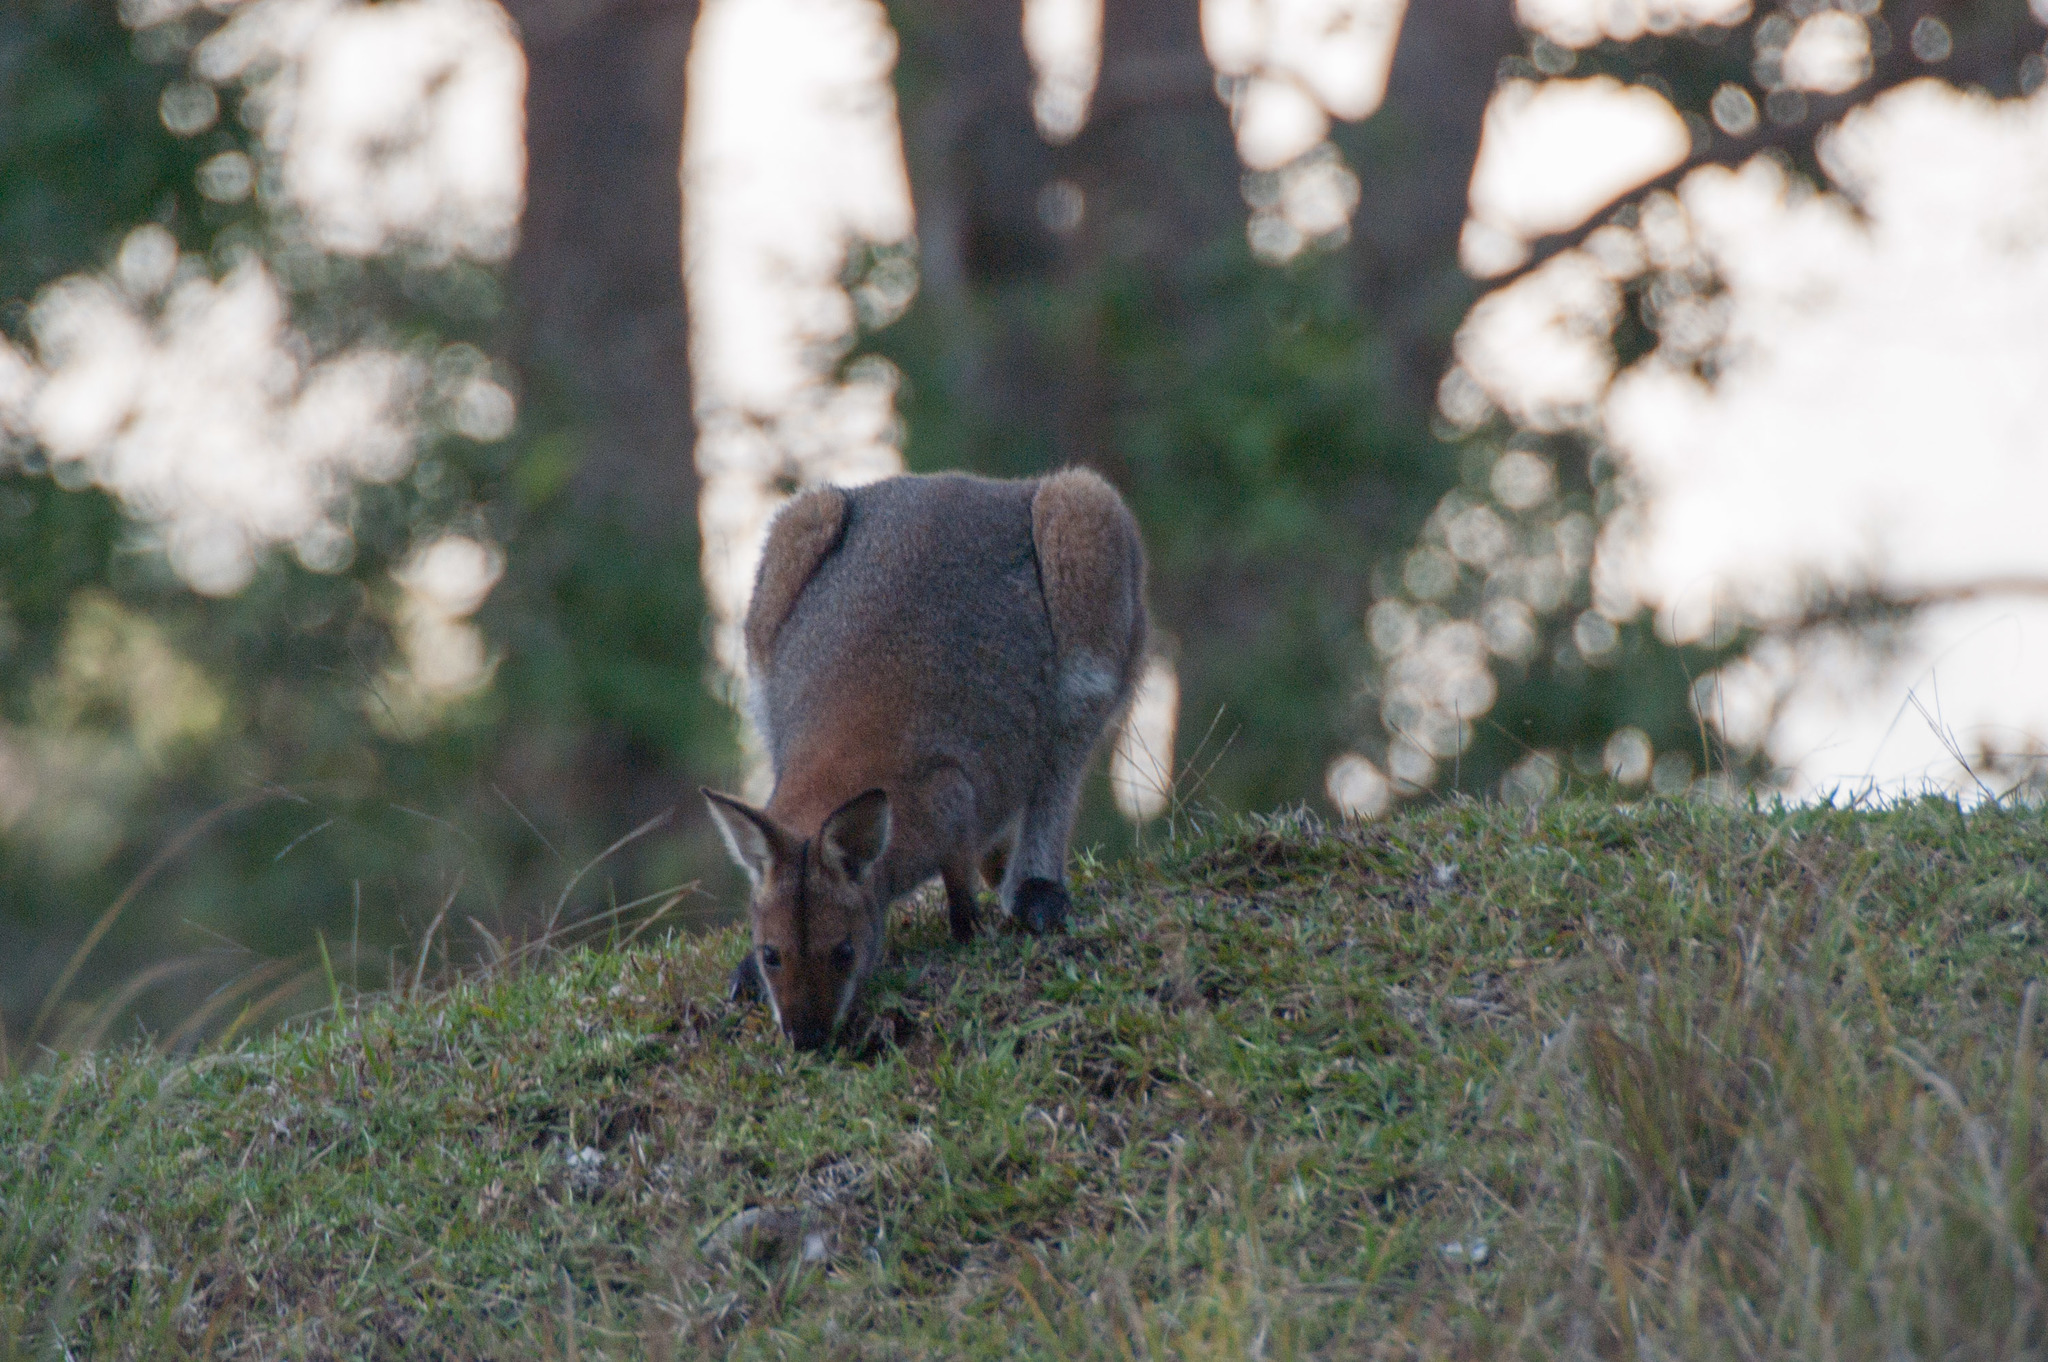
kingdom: Animalia
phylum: Chordata
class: Mammalia
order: Diprotodontia
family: Macropodidae
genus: Notamacropus
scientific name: Notamacropus rufogriseus
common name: Red-necked wallaby
